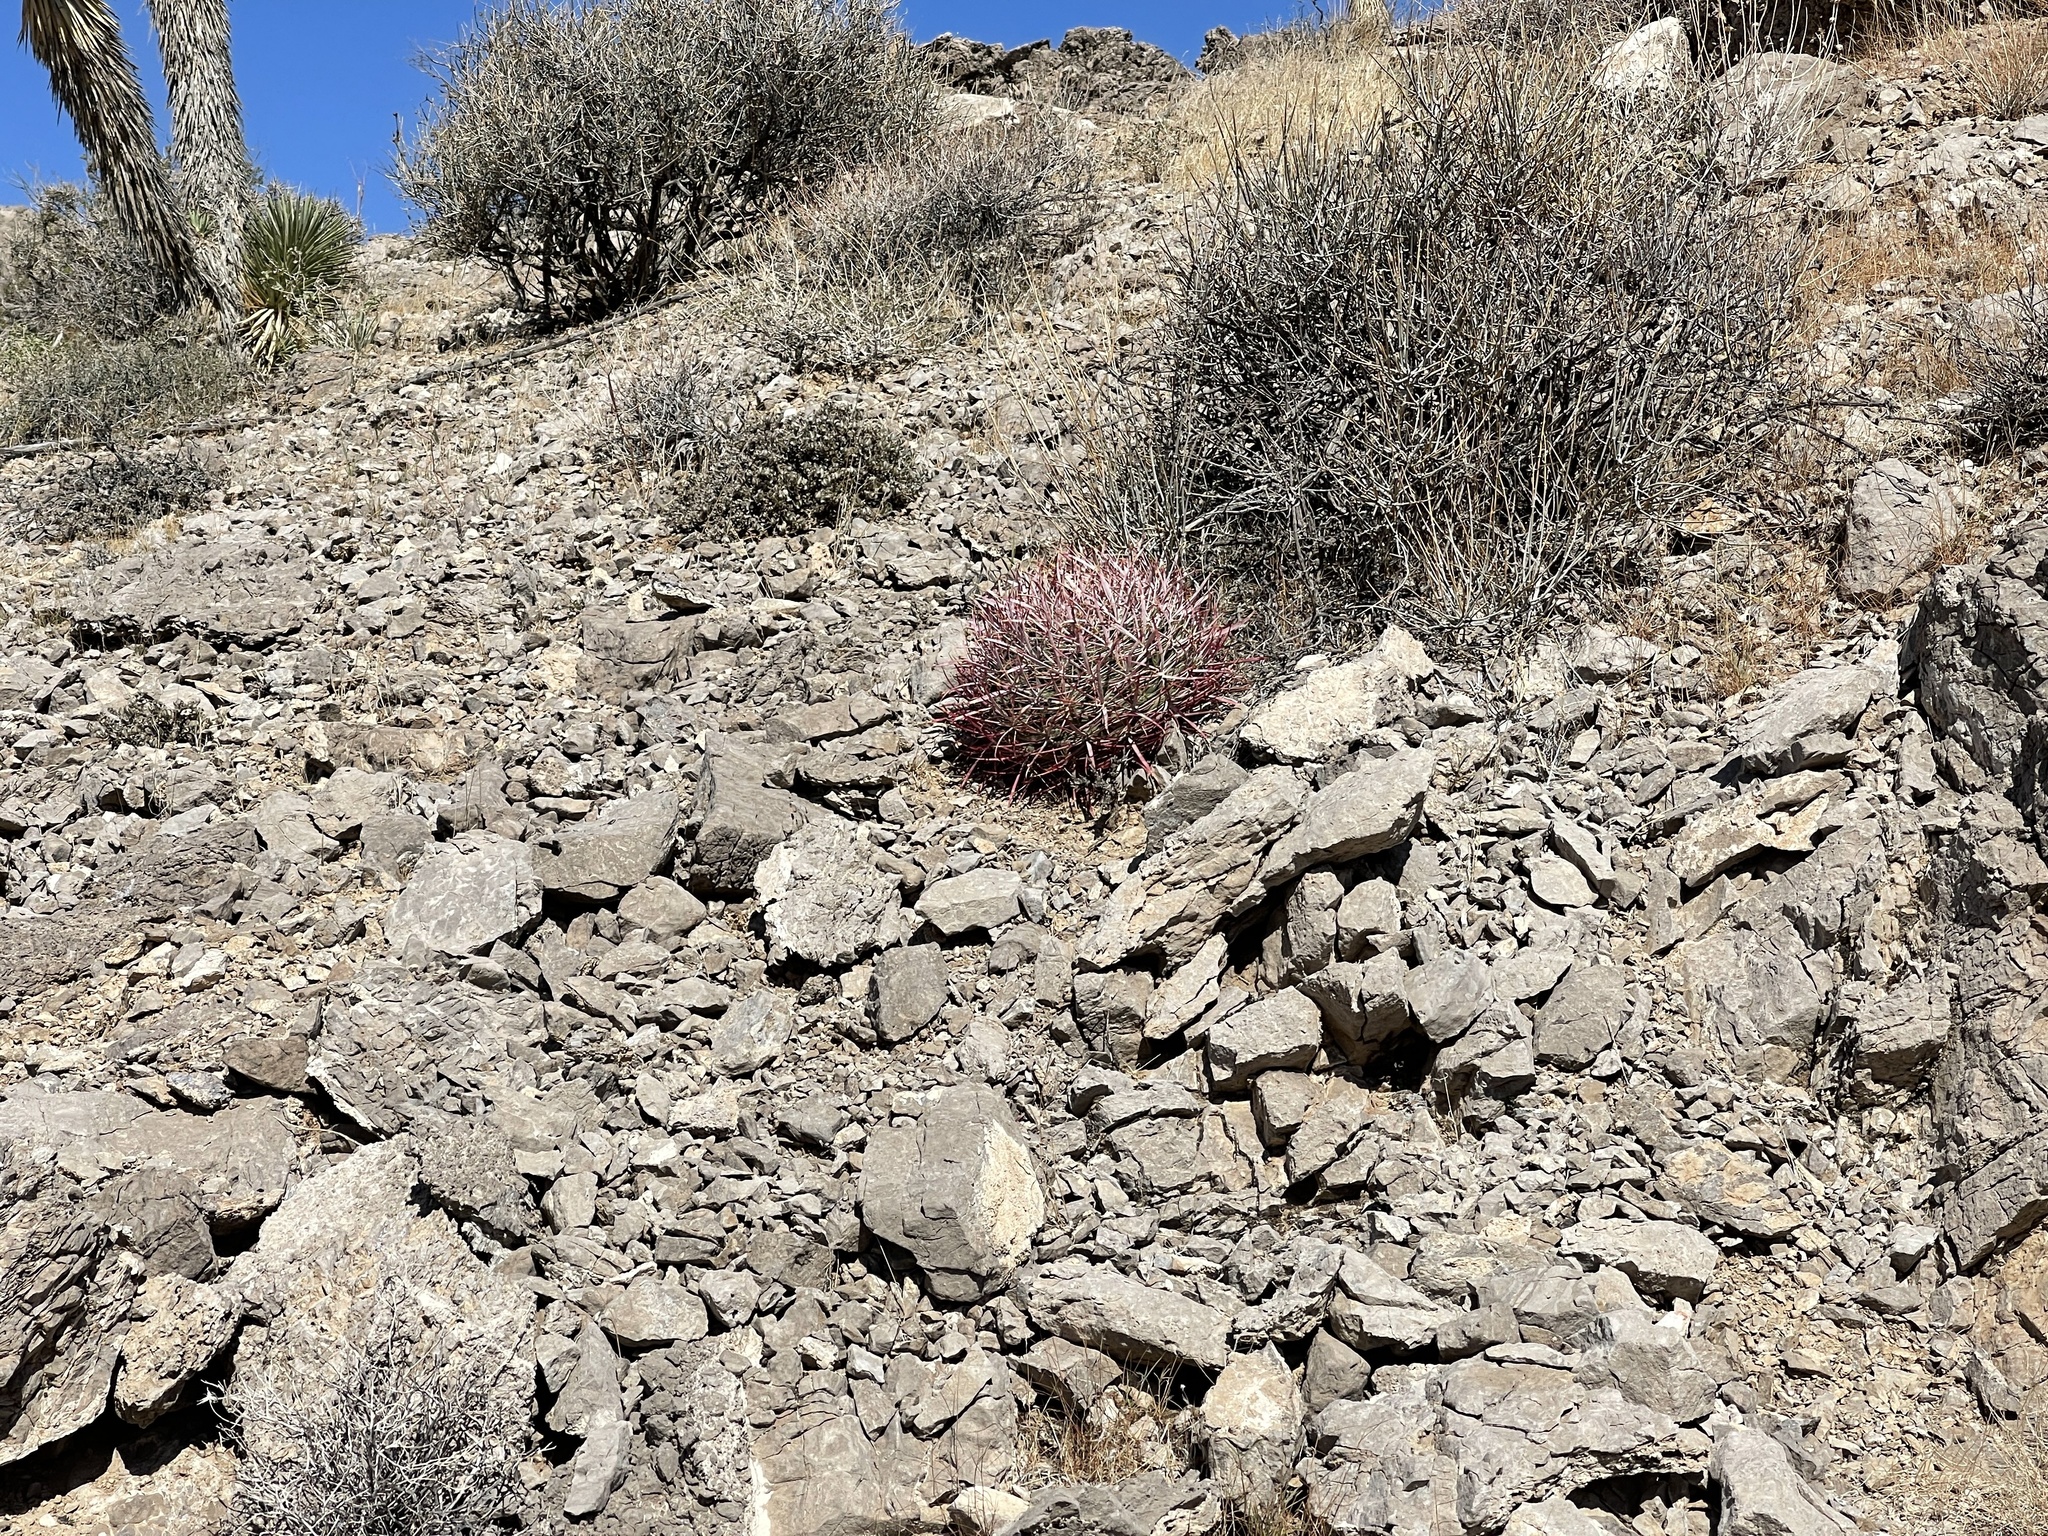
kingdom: Plantae
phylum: Tracheophyta
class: Magnoliopsida
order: Caryophyllales
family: Cactaceae
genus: Ferocactus
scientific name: Ferocactus cylindraceus
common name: California barrel cactus
